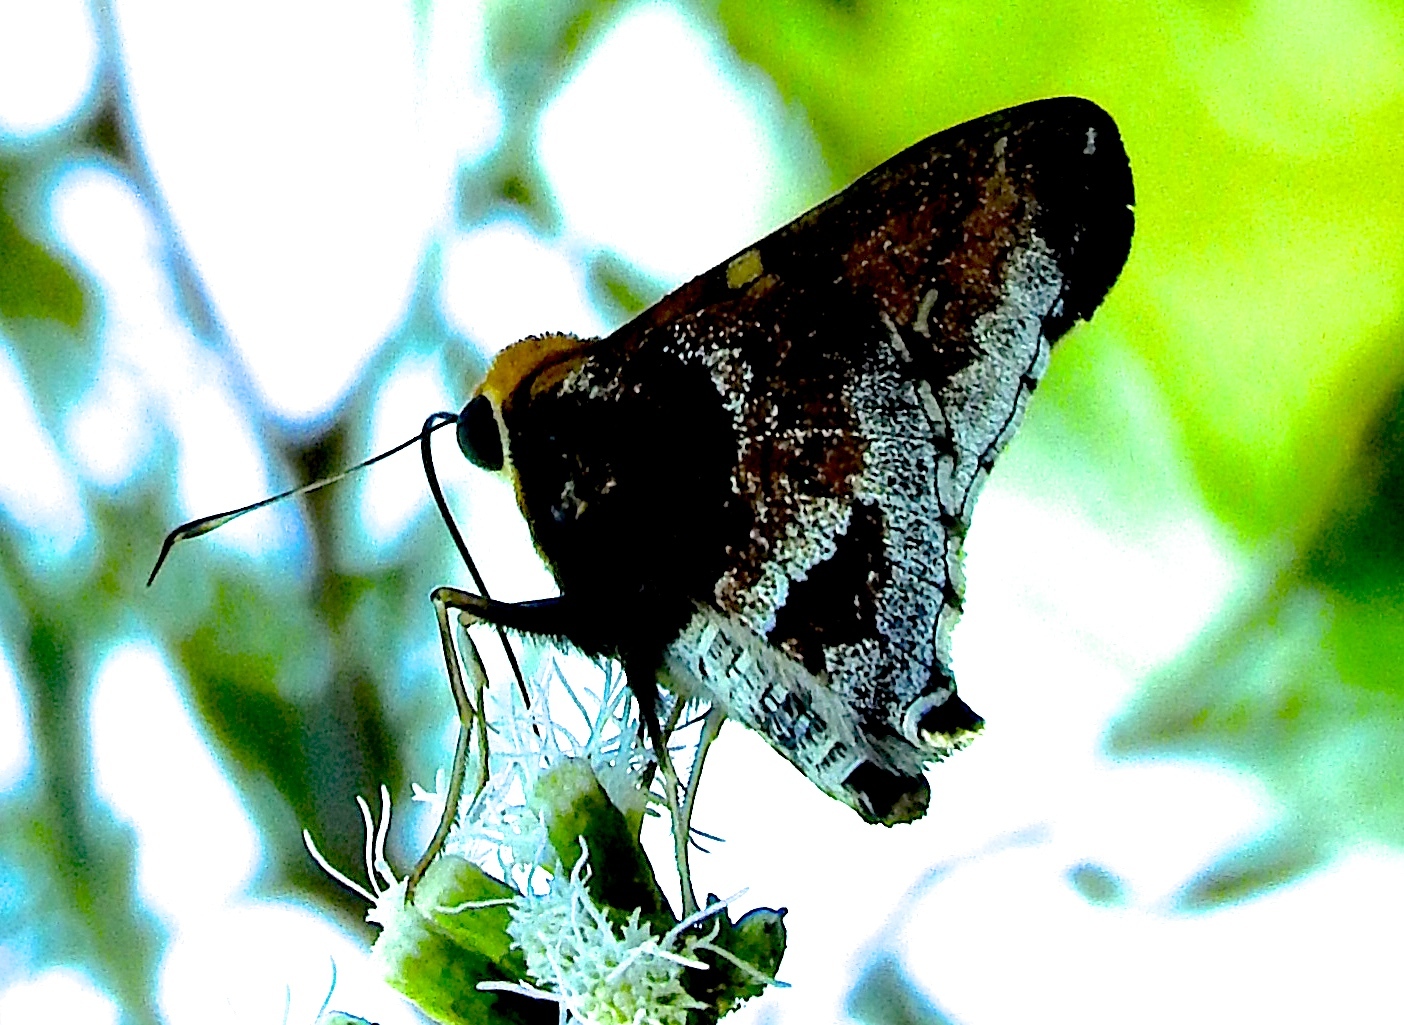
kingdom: Animalia
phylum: Arthropoda
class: Insecta
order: Lepidoptera
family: Hesperiidae
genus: Proteides
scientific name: Proteides mercurius
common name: Mercurial skipper
